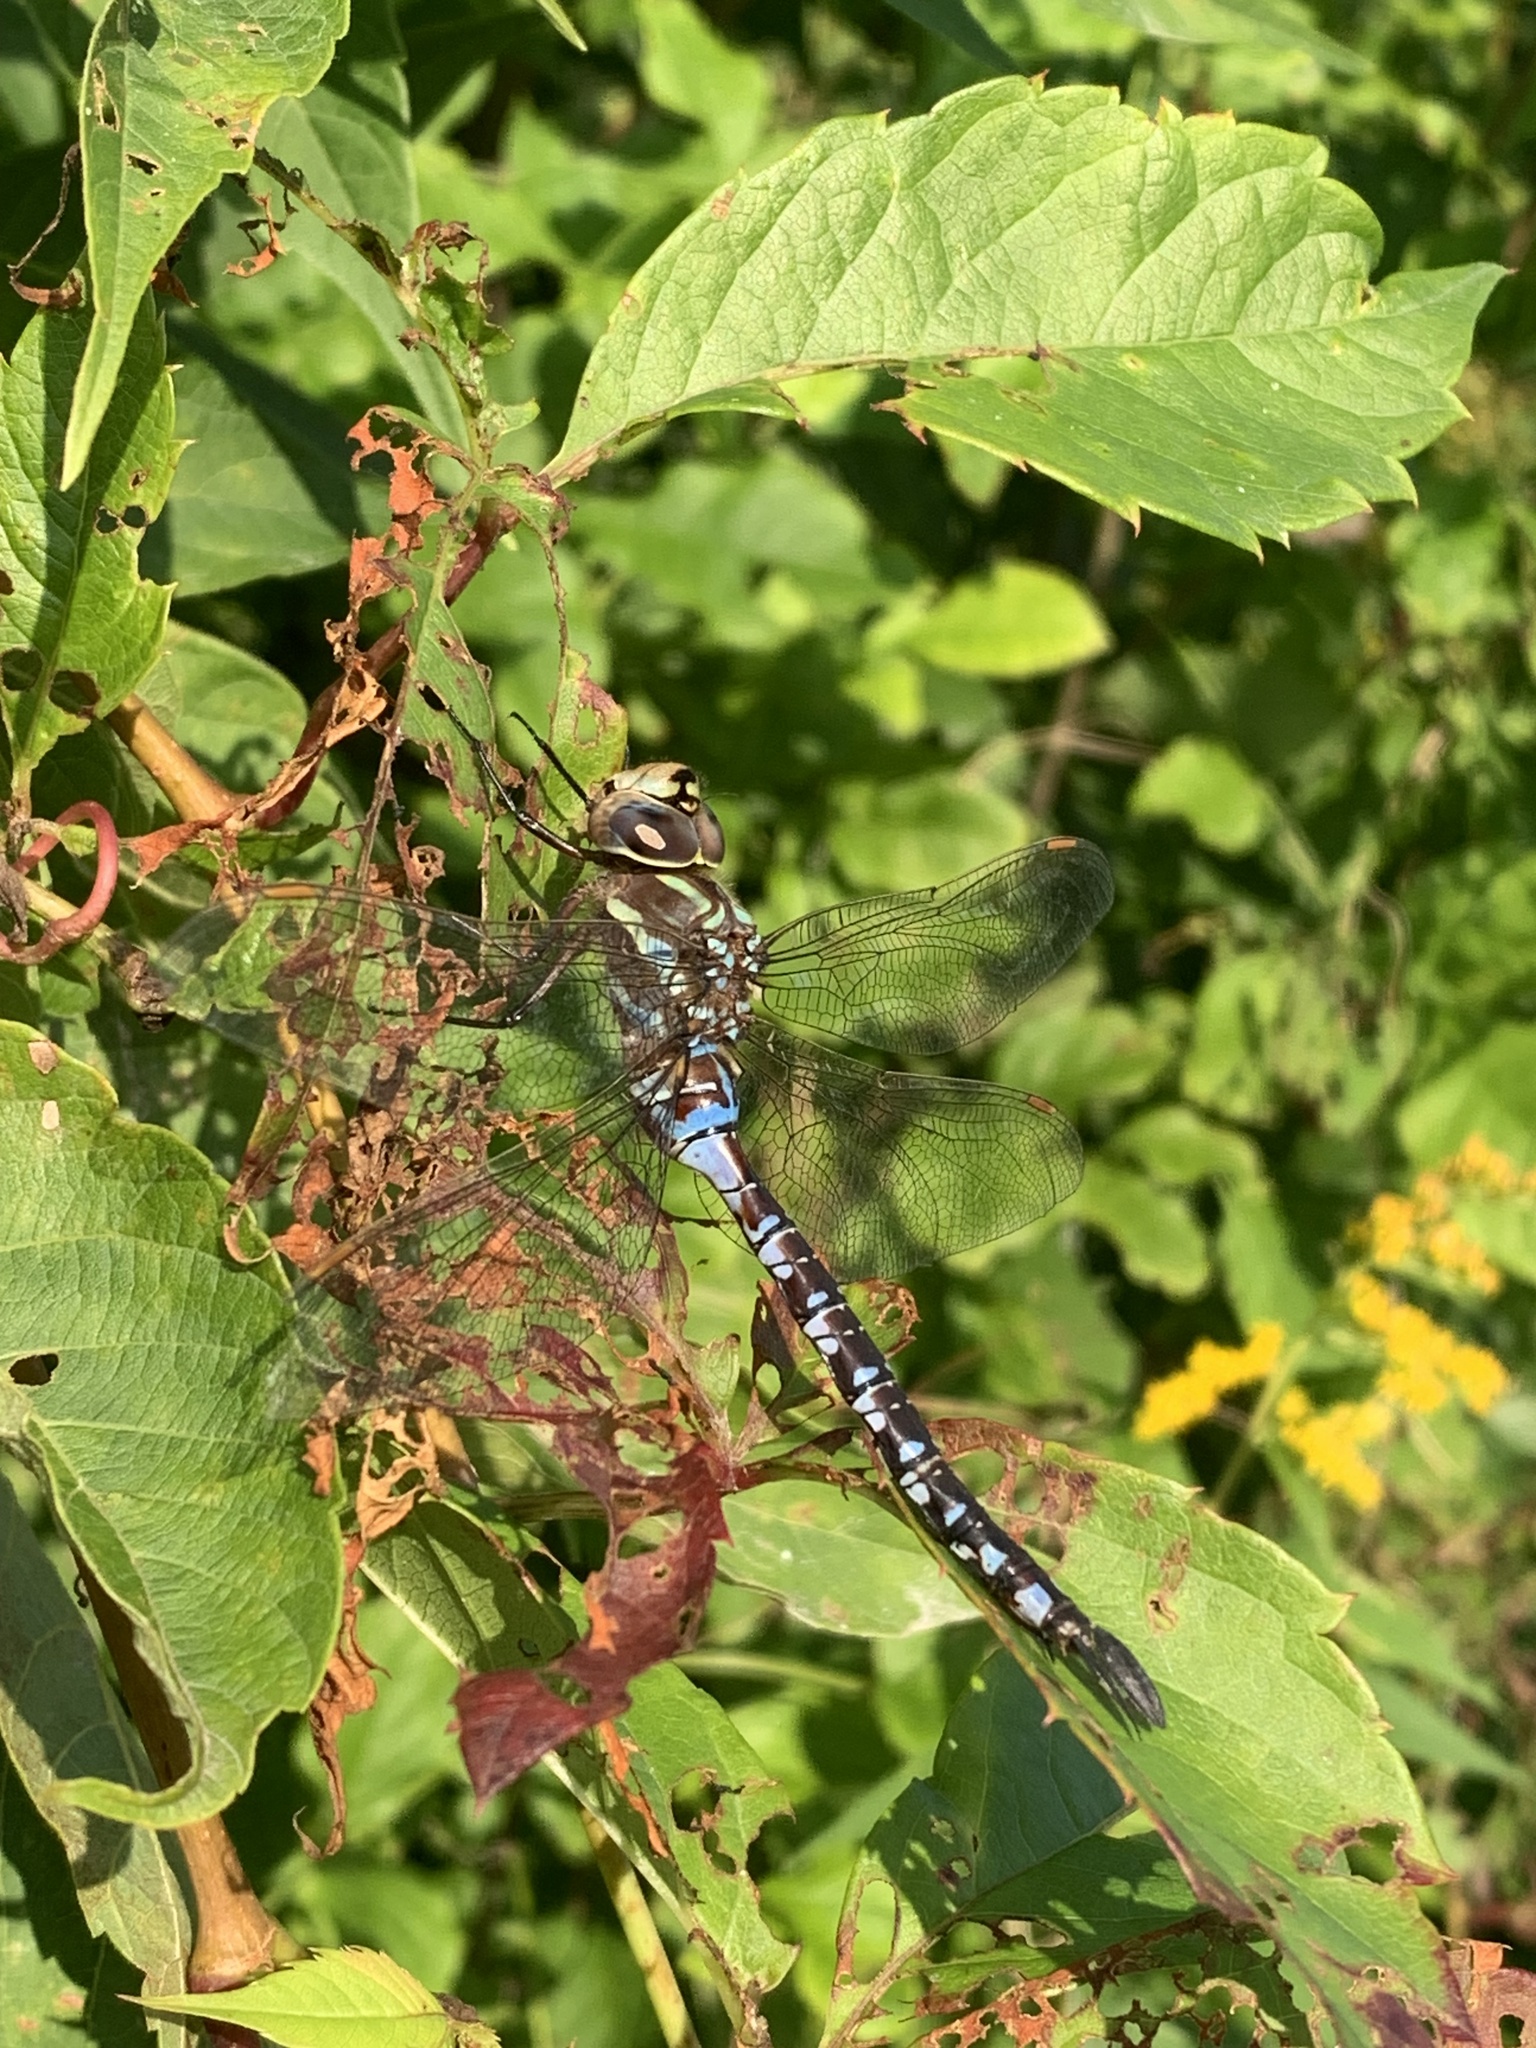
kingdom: Animalia
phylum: Arthropoda
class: Insecta
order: Odonata
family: Aeshnidae
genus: Aeshna
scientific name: Aeshna constricta
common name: Lance-tipped darner
